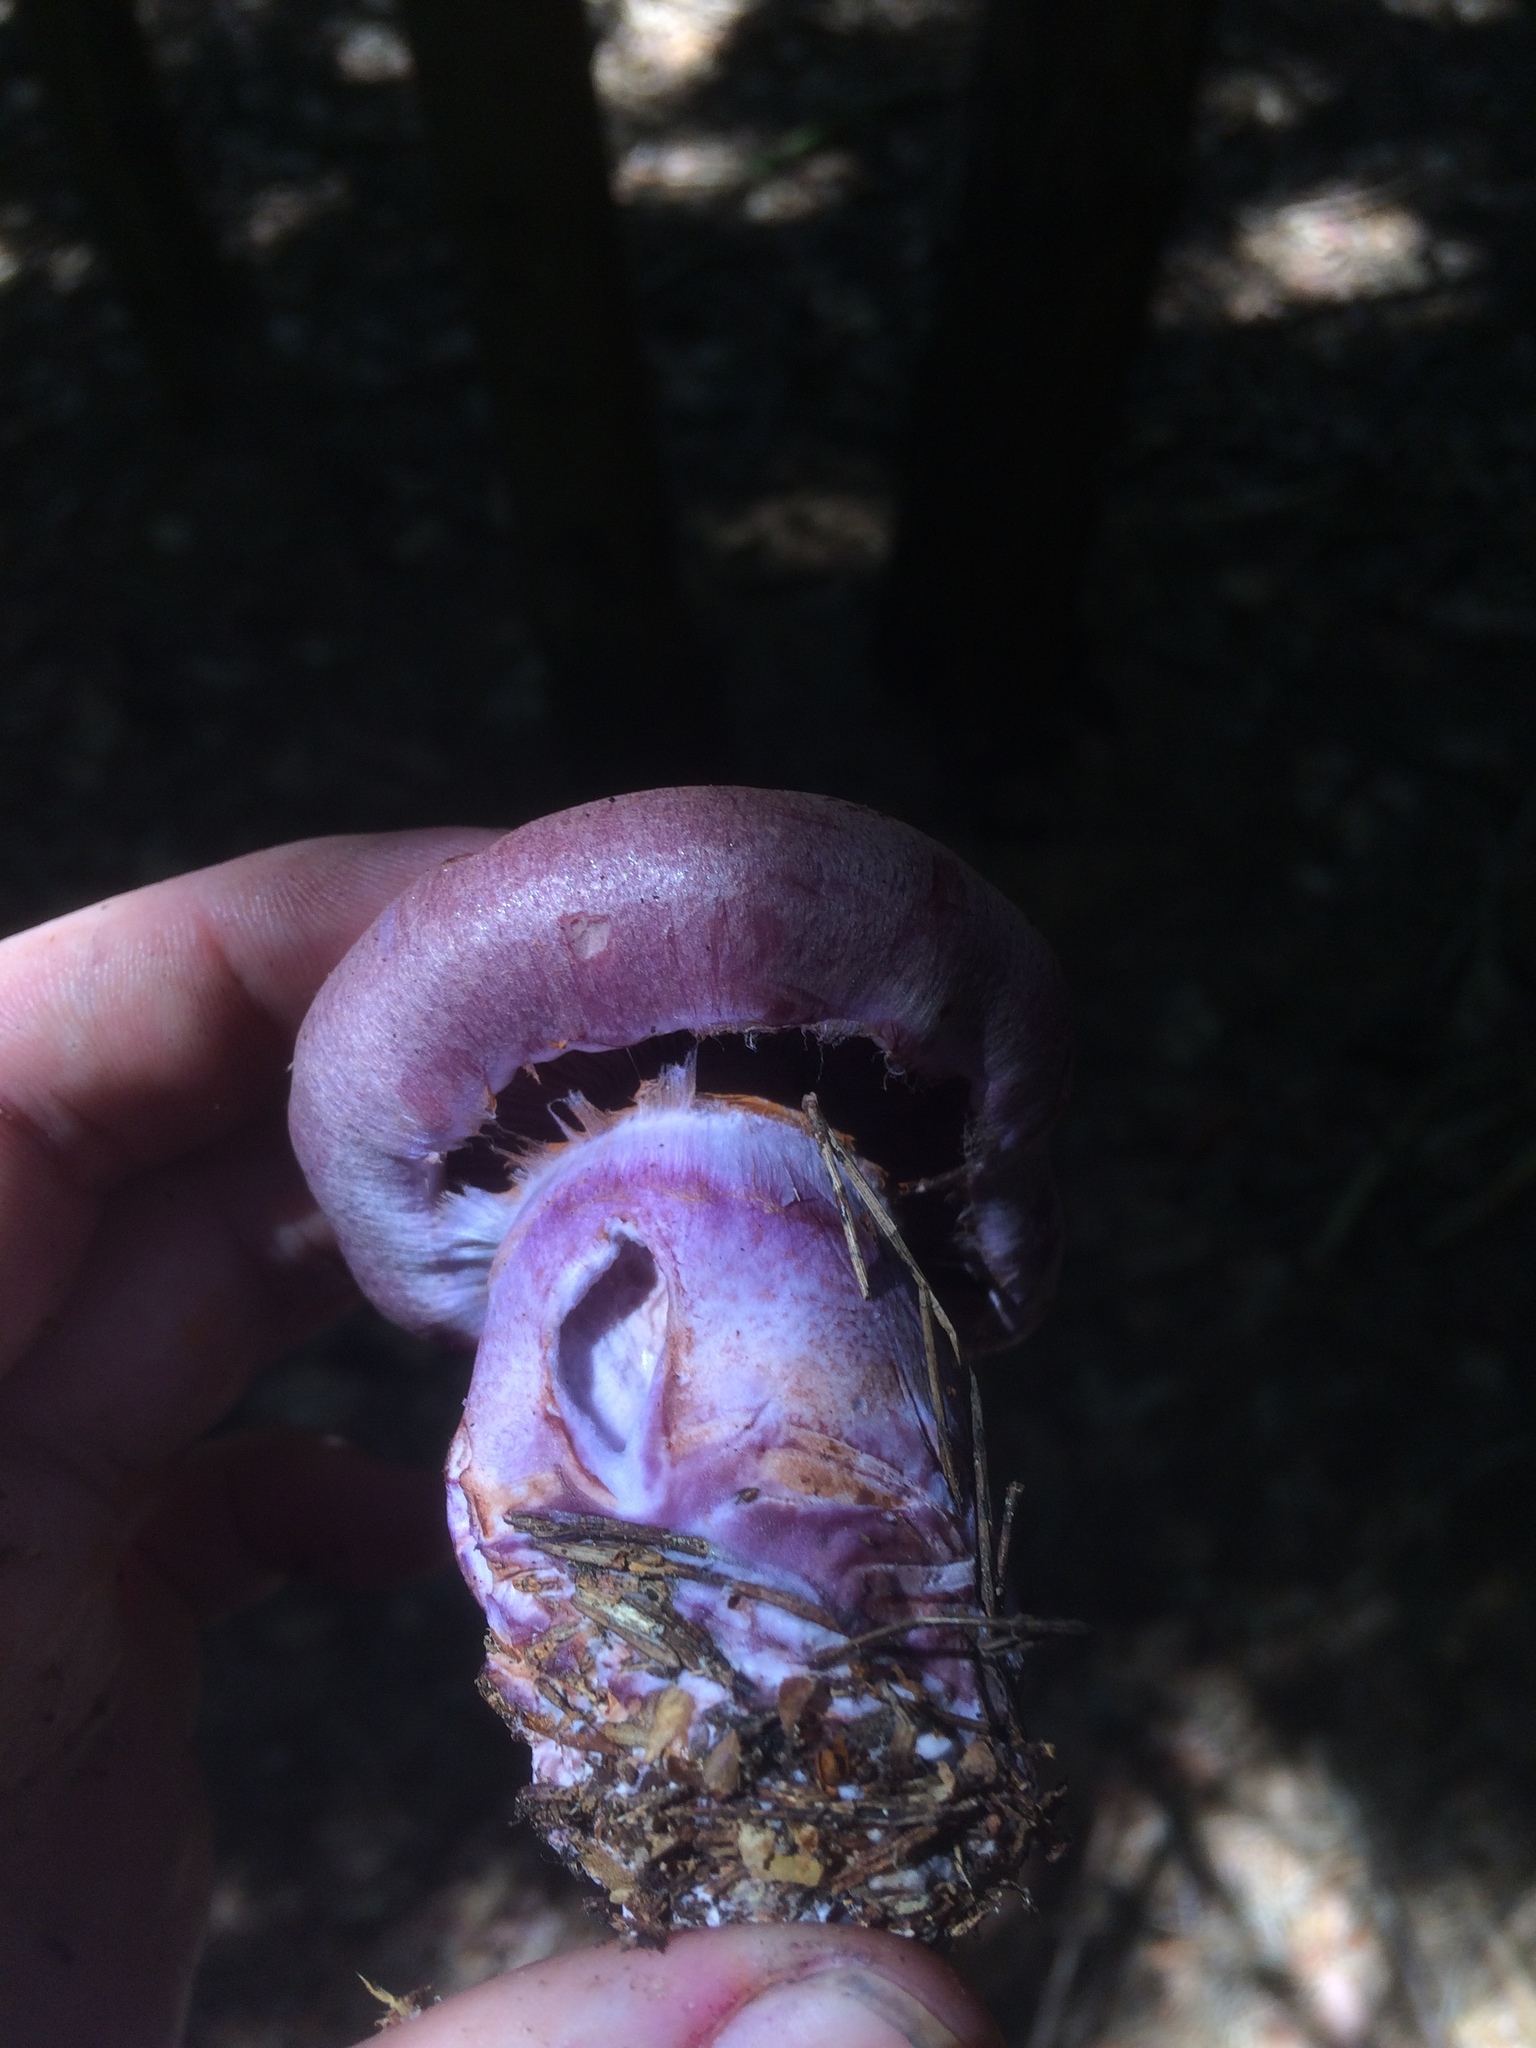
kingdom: Fungi
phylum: Basidiomycota
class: Agaricomycetes
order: Agaricales
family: Cortinariaceae
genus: Cortinarius
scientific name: Cortinarius camphoratus
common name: Goatcheese webcap
